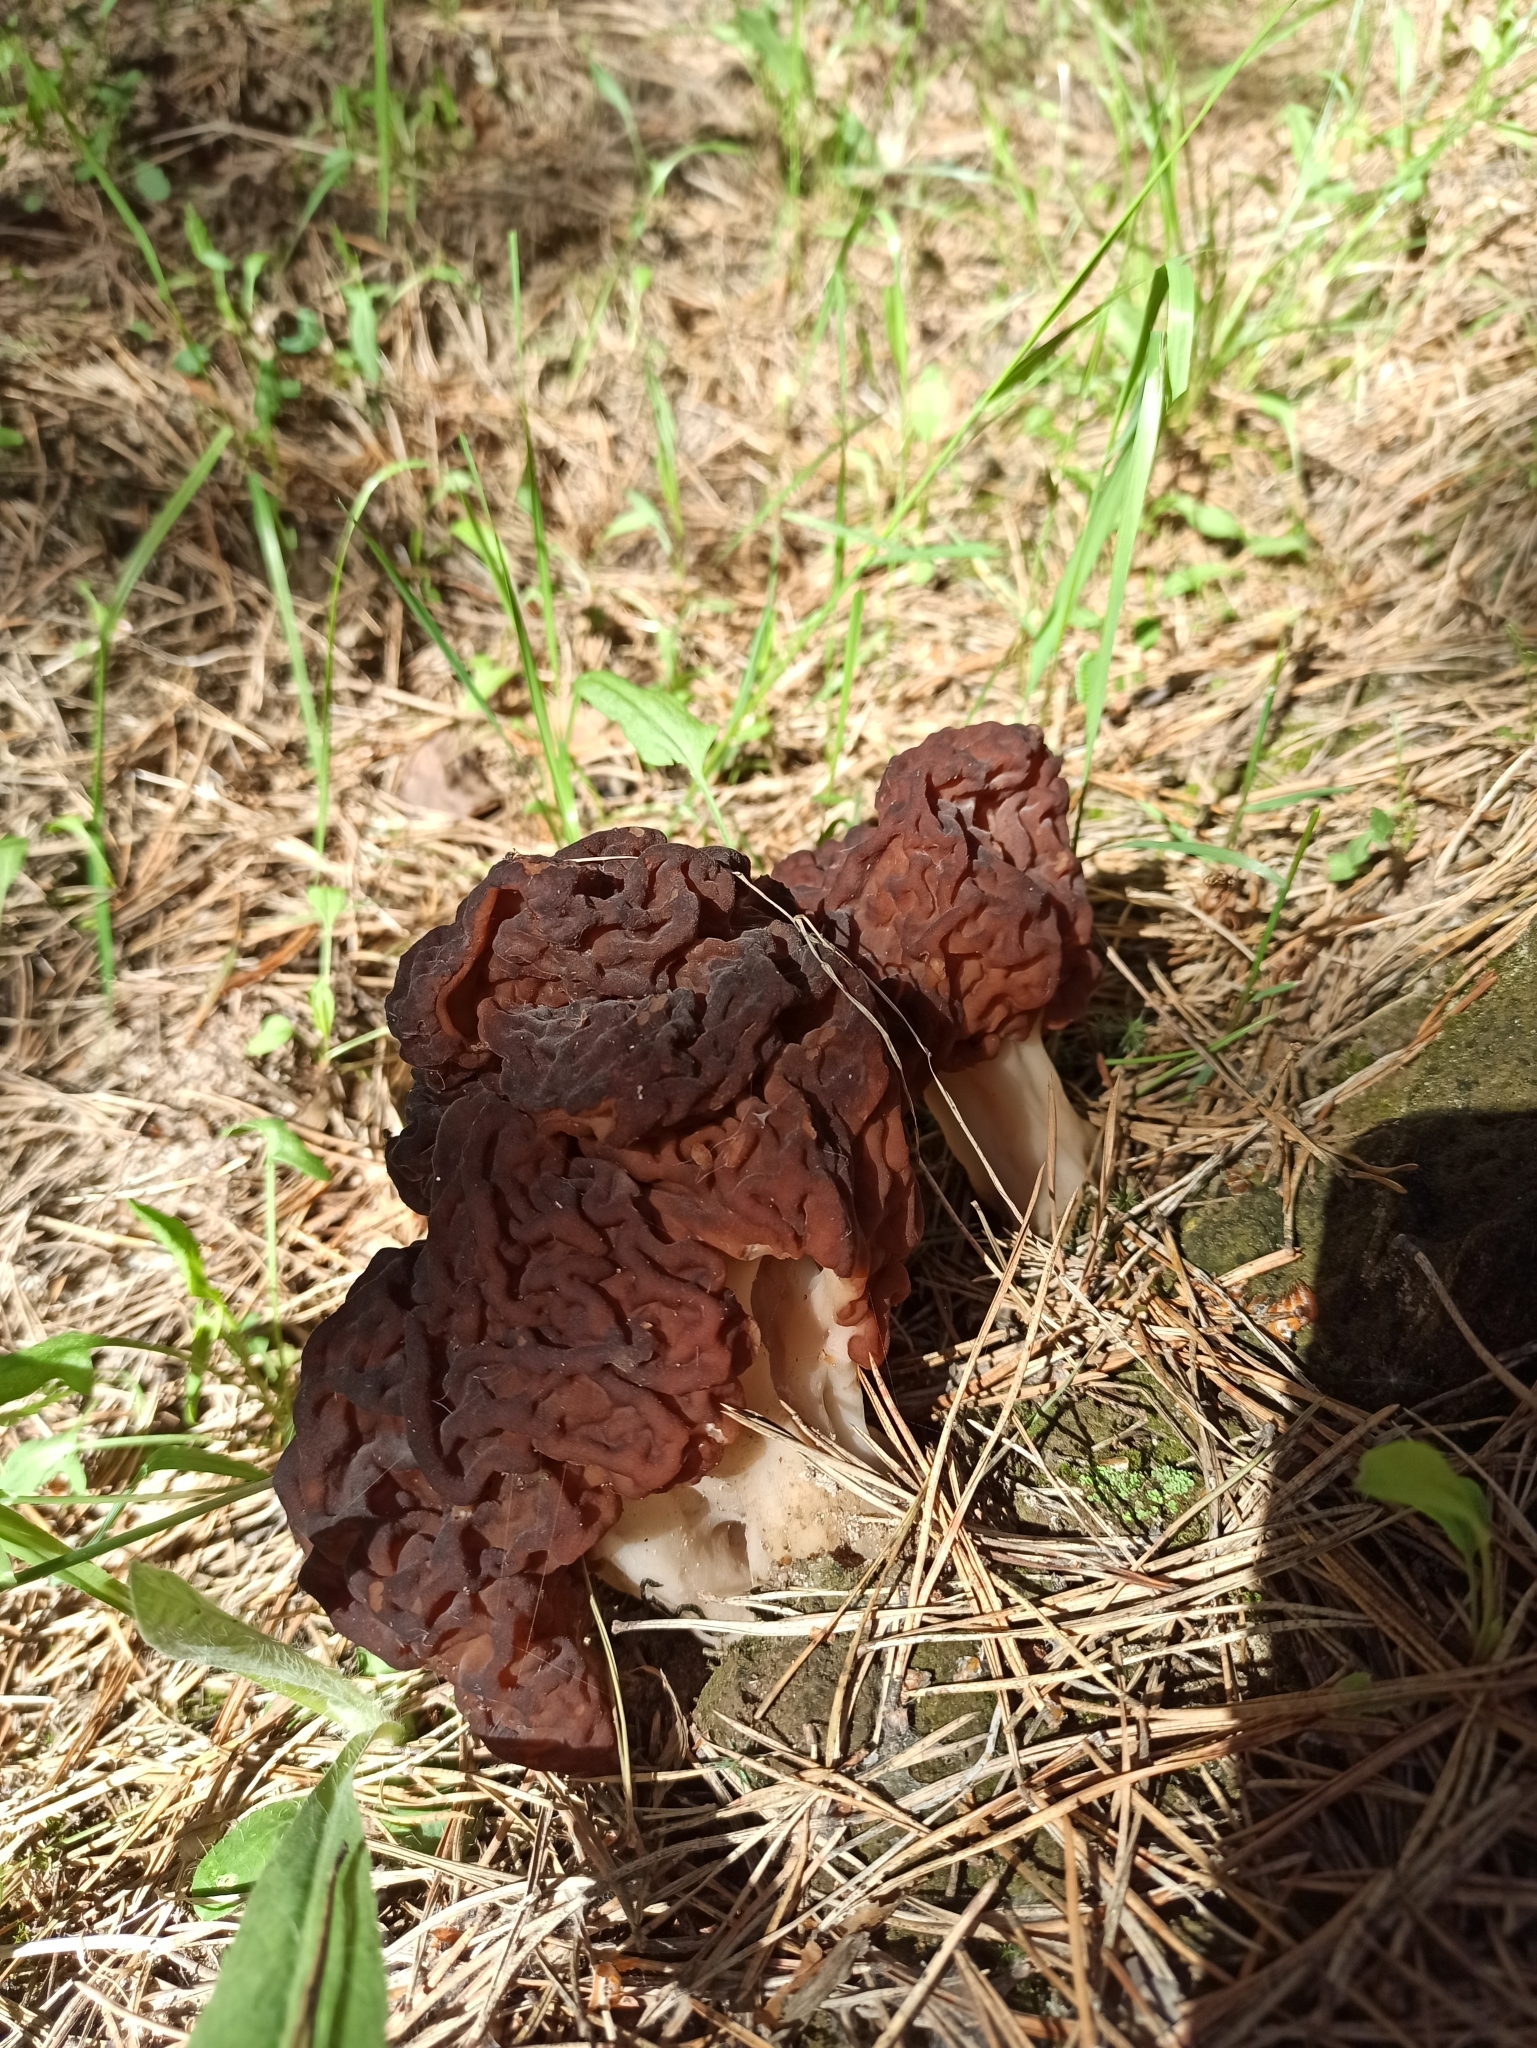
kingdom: Fungi
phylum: Ascomycota
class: Pezizomycetes
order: Pezizales
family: Discinaceae
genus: Gyromitra
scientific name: Gyromitra esculenta
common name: False morel
